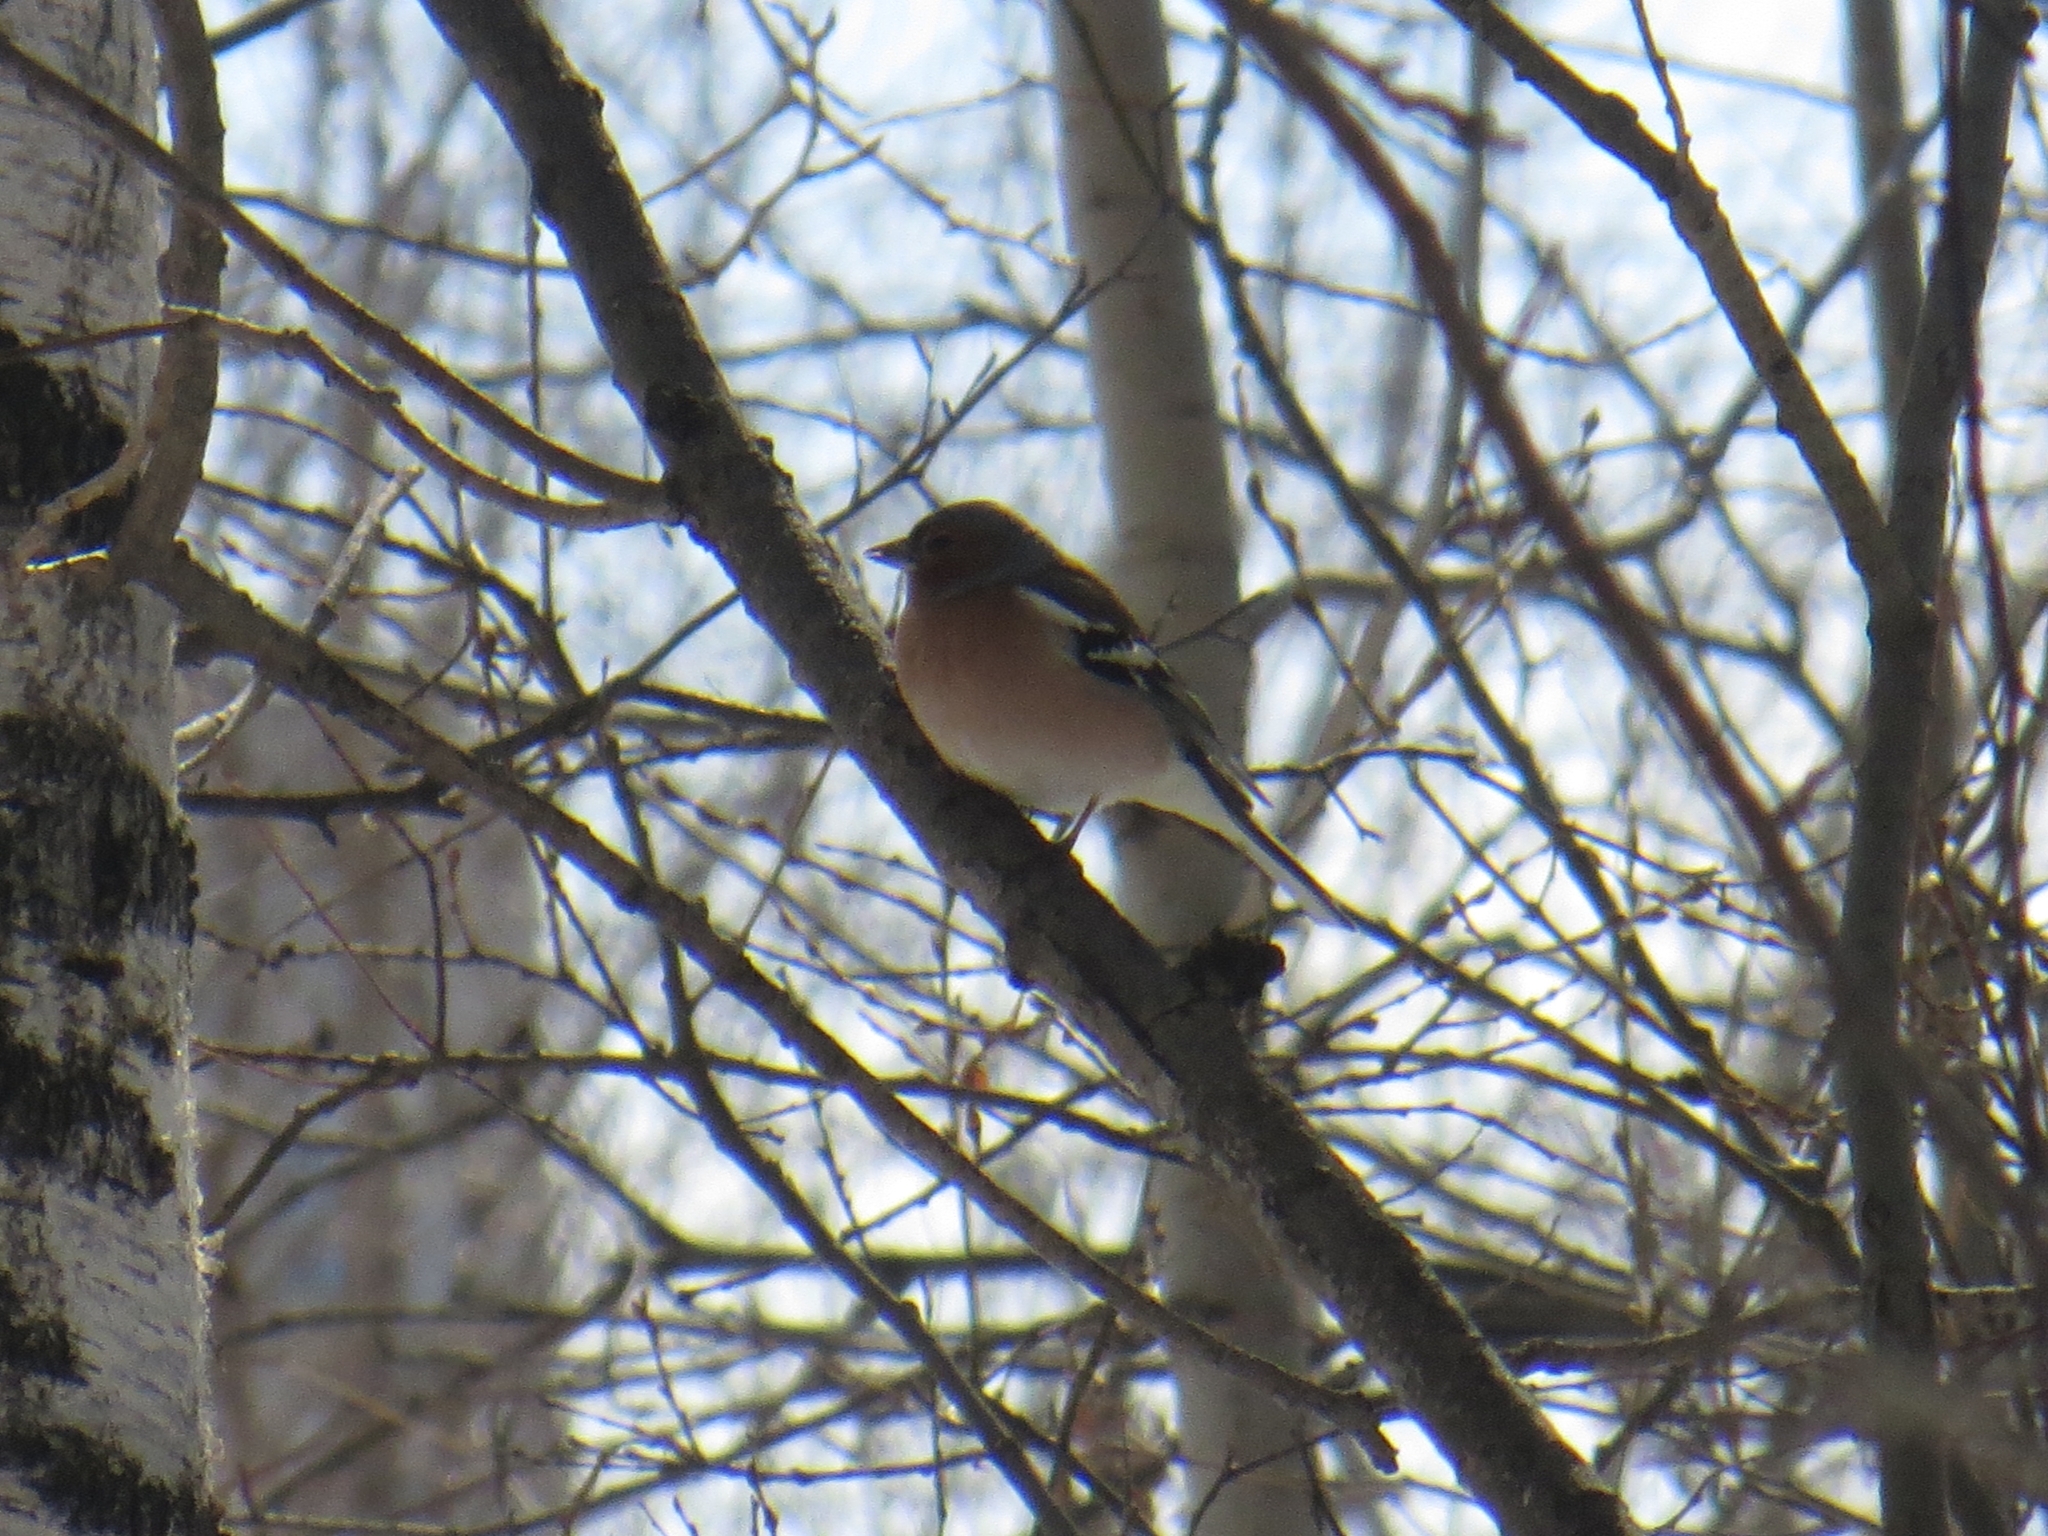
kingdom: Animalia
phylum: Chordata
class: Aves
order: Passeriformes
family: Fringillidae
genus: Fringilla
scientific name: Fringilla coelebs
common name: Common chaffinch
